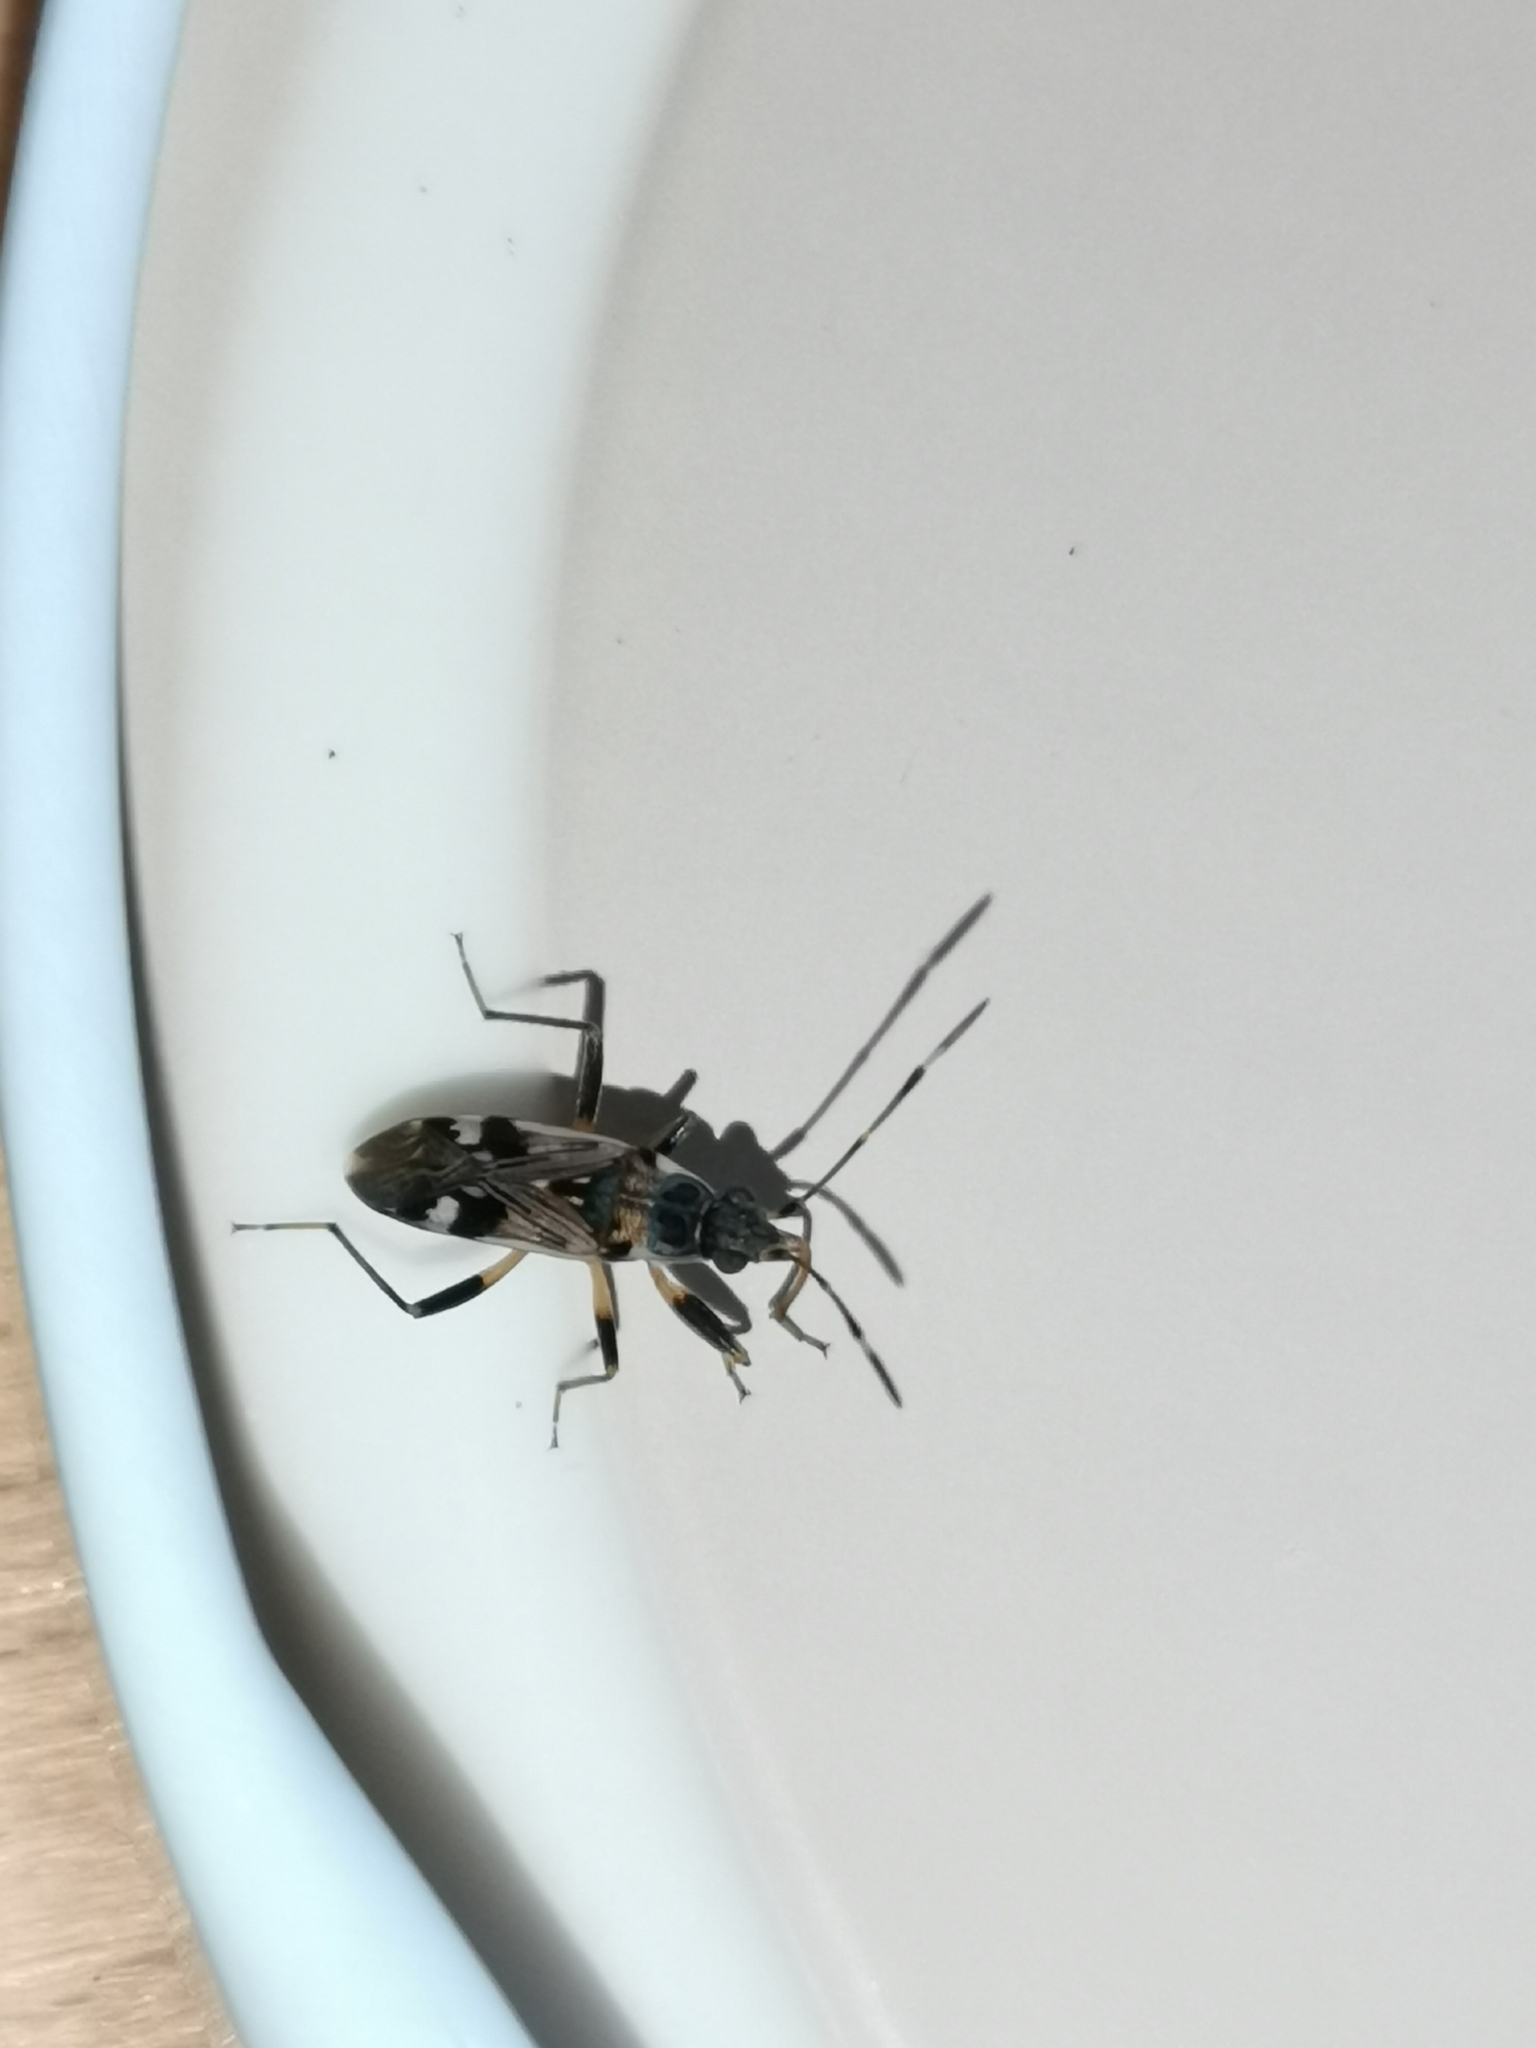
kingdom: Animalia
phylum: Arthropoda
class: Insecta
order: Hemiptera
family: Rhyparochromidae
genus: Beosus
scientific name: Beosus maritimus
